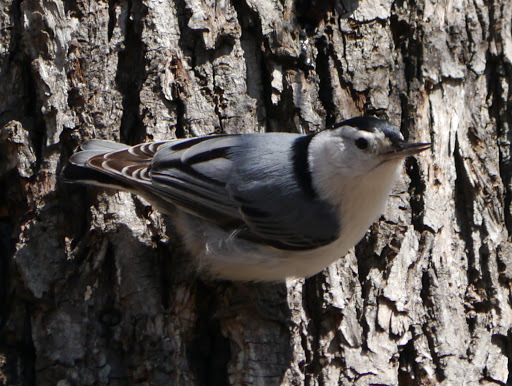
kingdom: Animalia
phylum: Chordata
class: Aves
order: Passeriformes
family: Sittidae
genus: Sitta
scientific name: Sitta carolinensis
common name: White-breasted nuthatch
